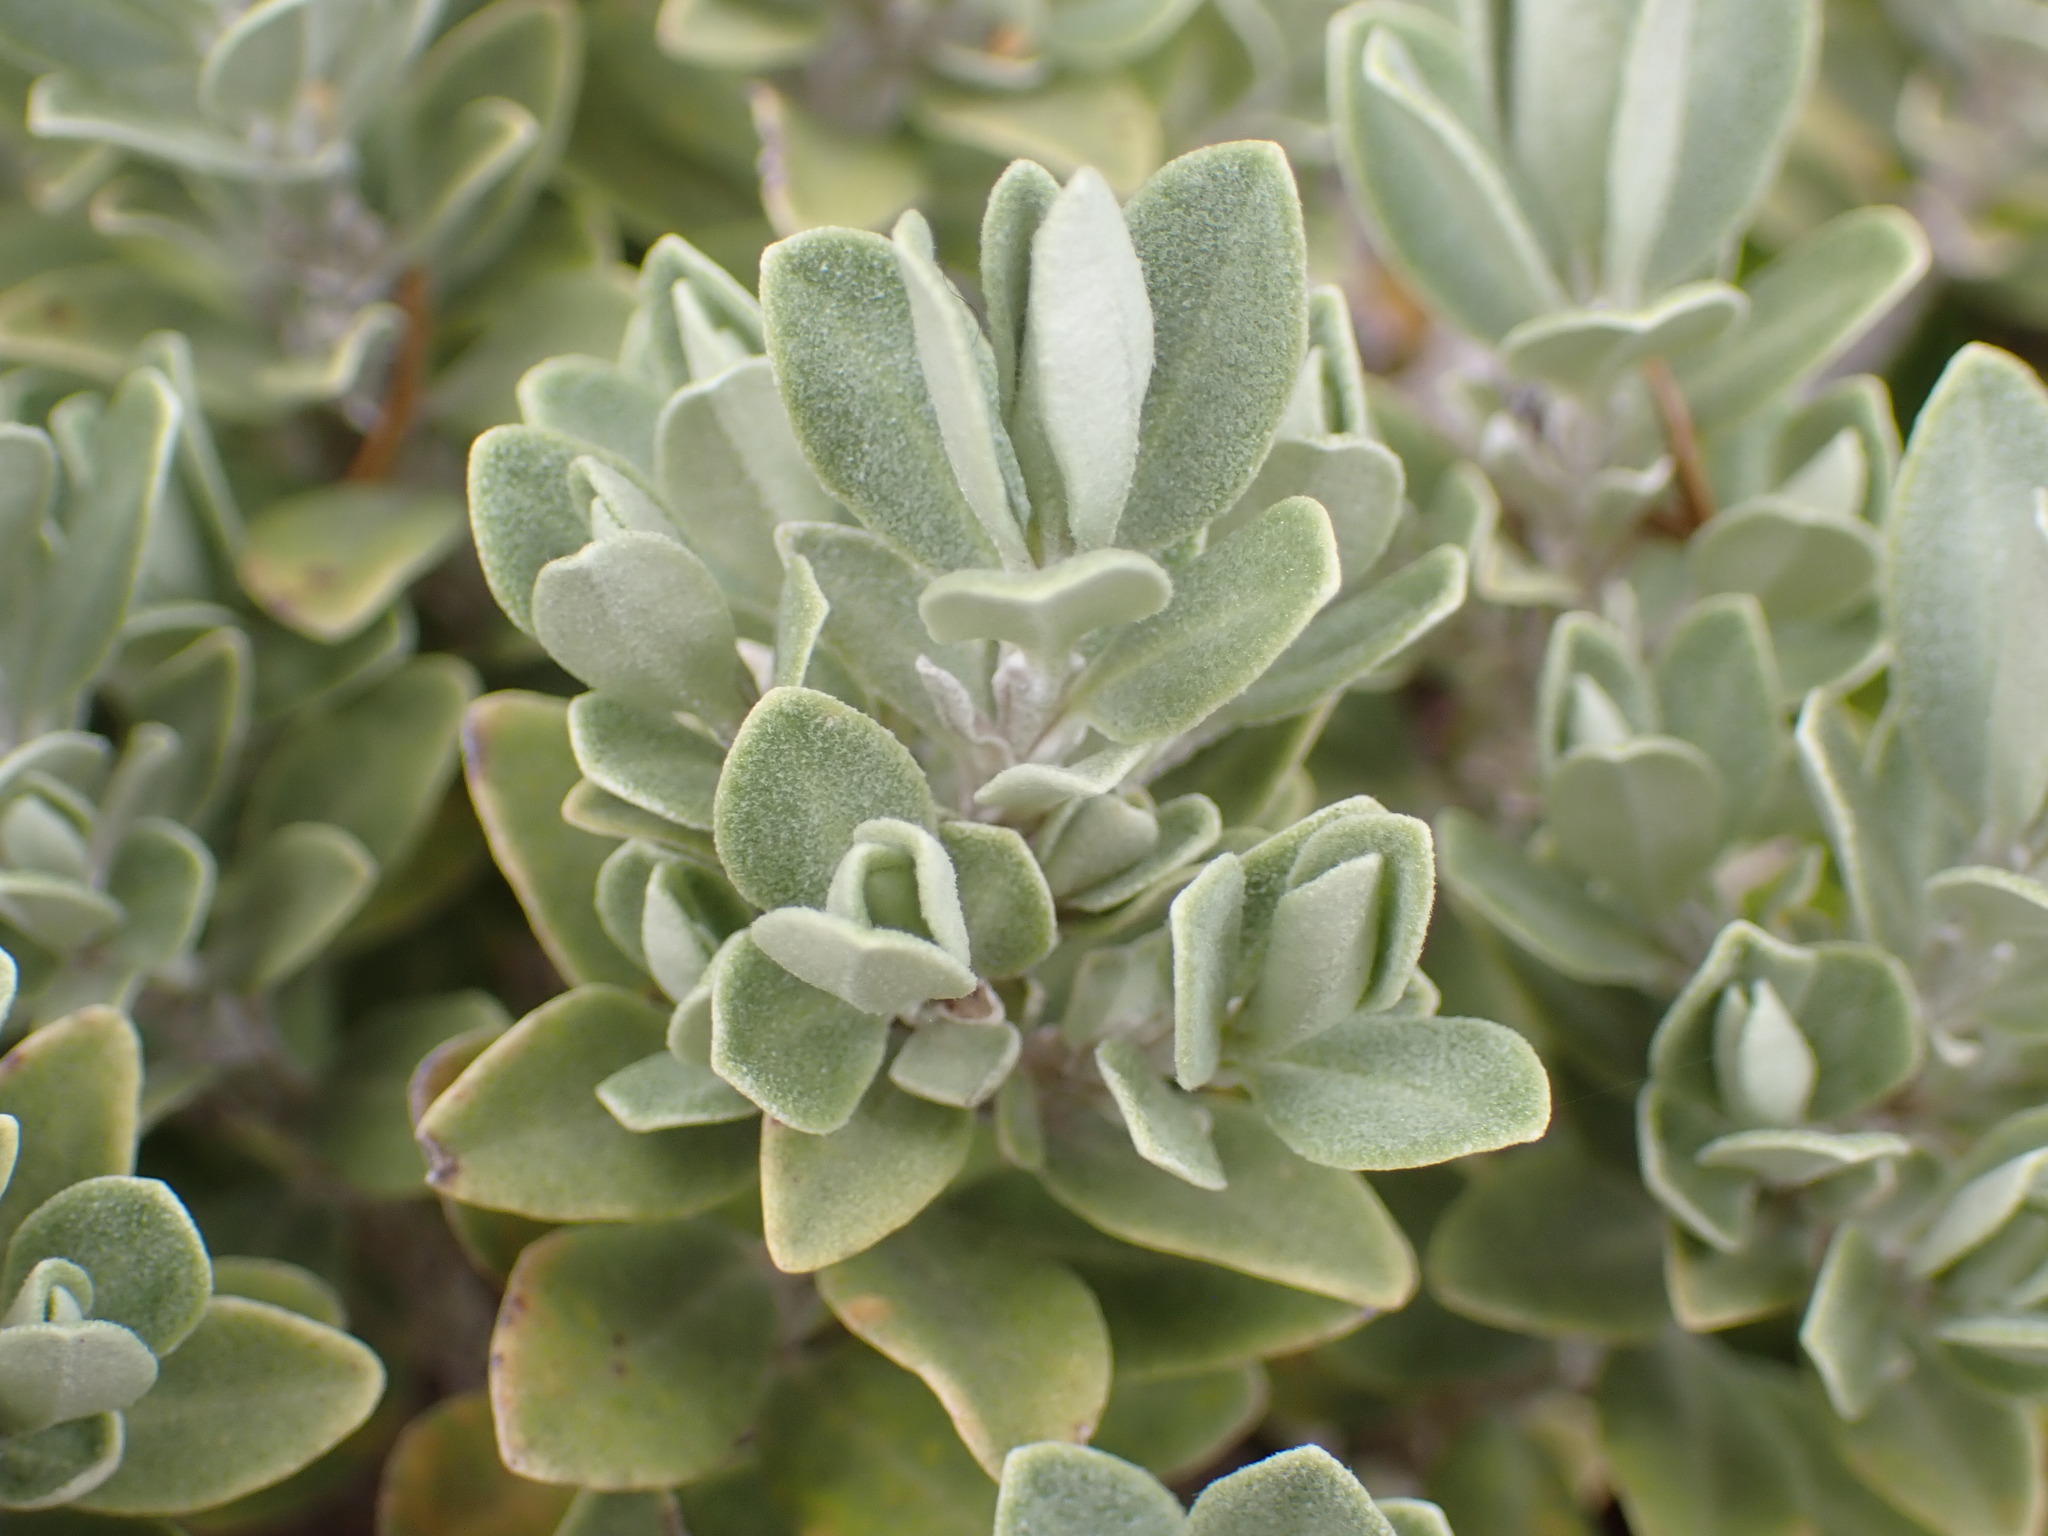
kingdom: Plantae
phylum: Tracheophyta
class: Magnoliopsida
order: Asterales
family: Asteraceae
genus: Olearia
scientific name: Olearia moschata
